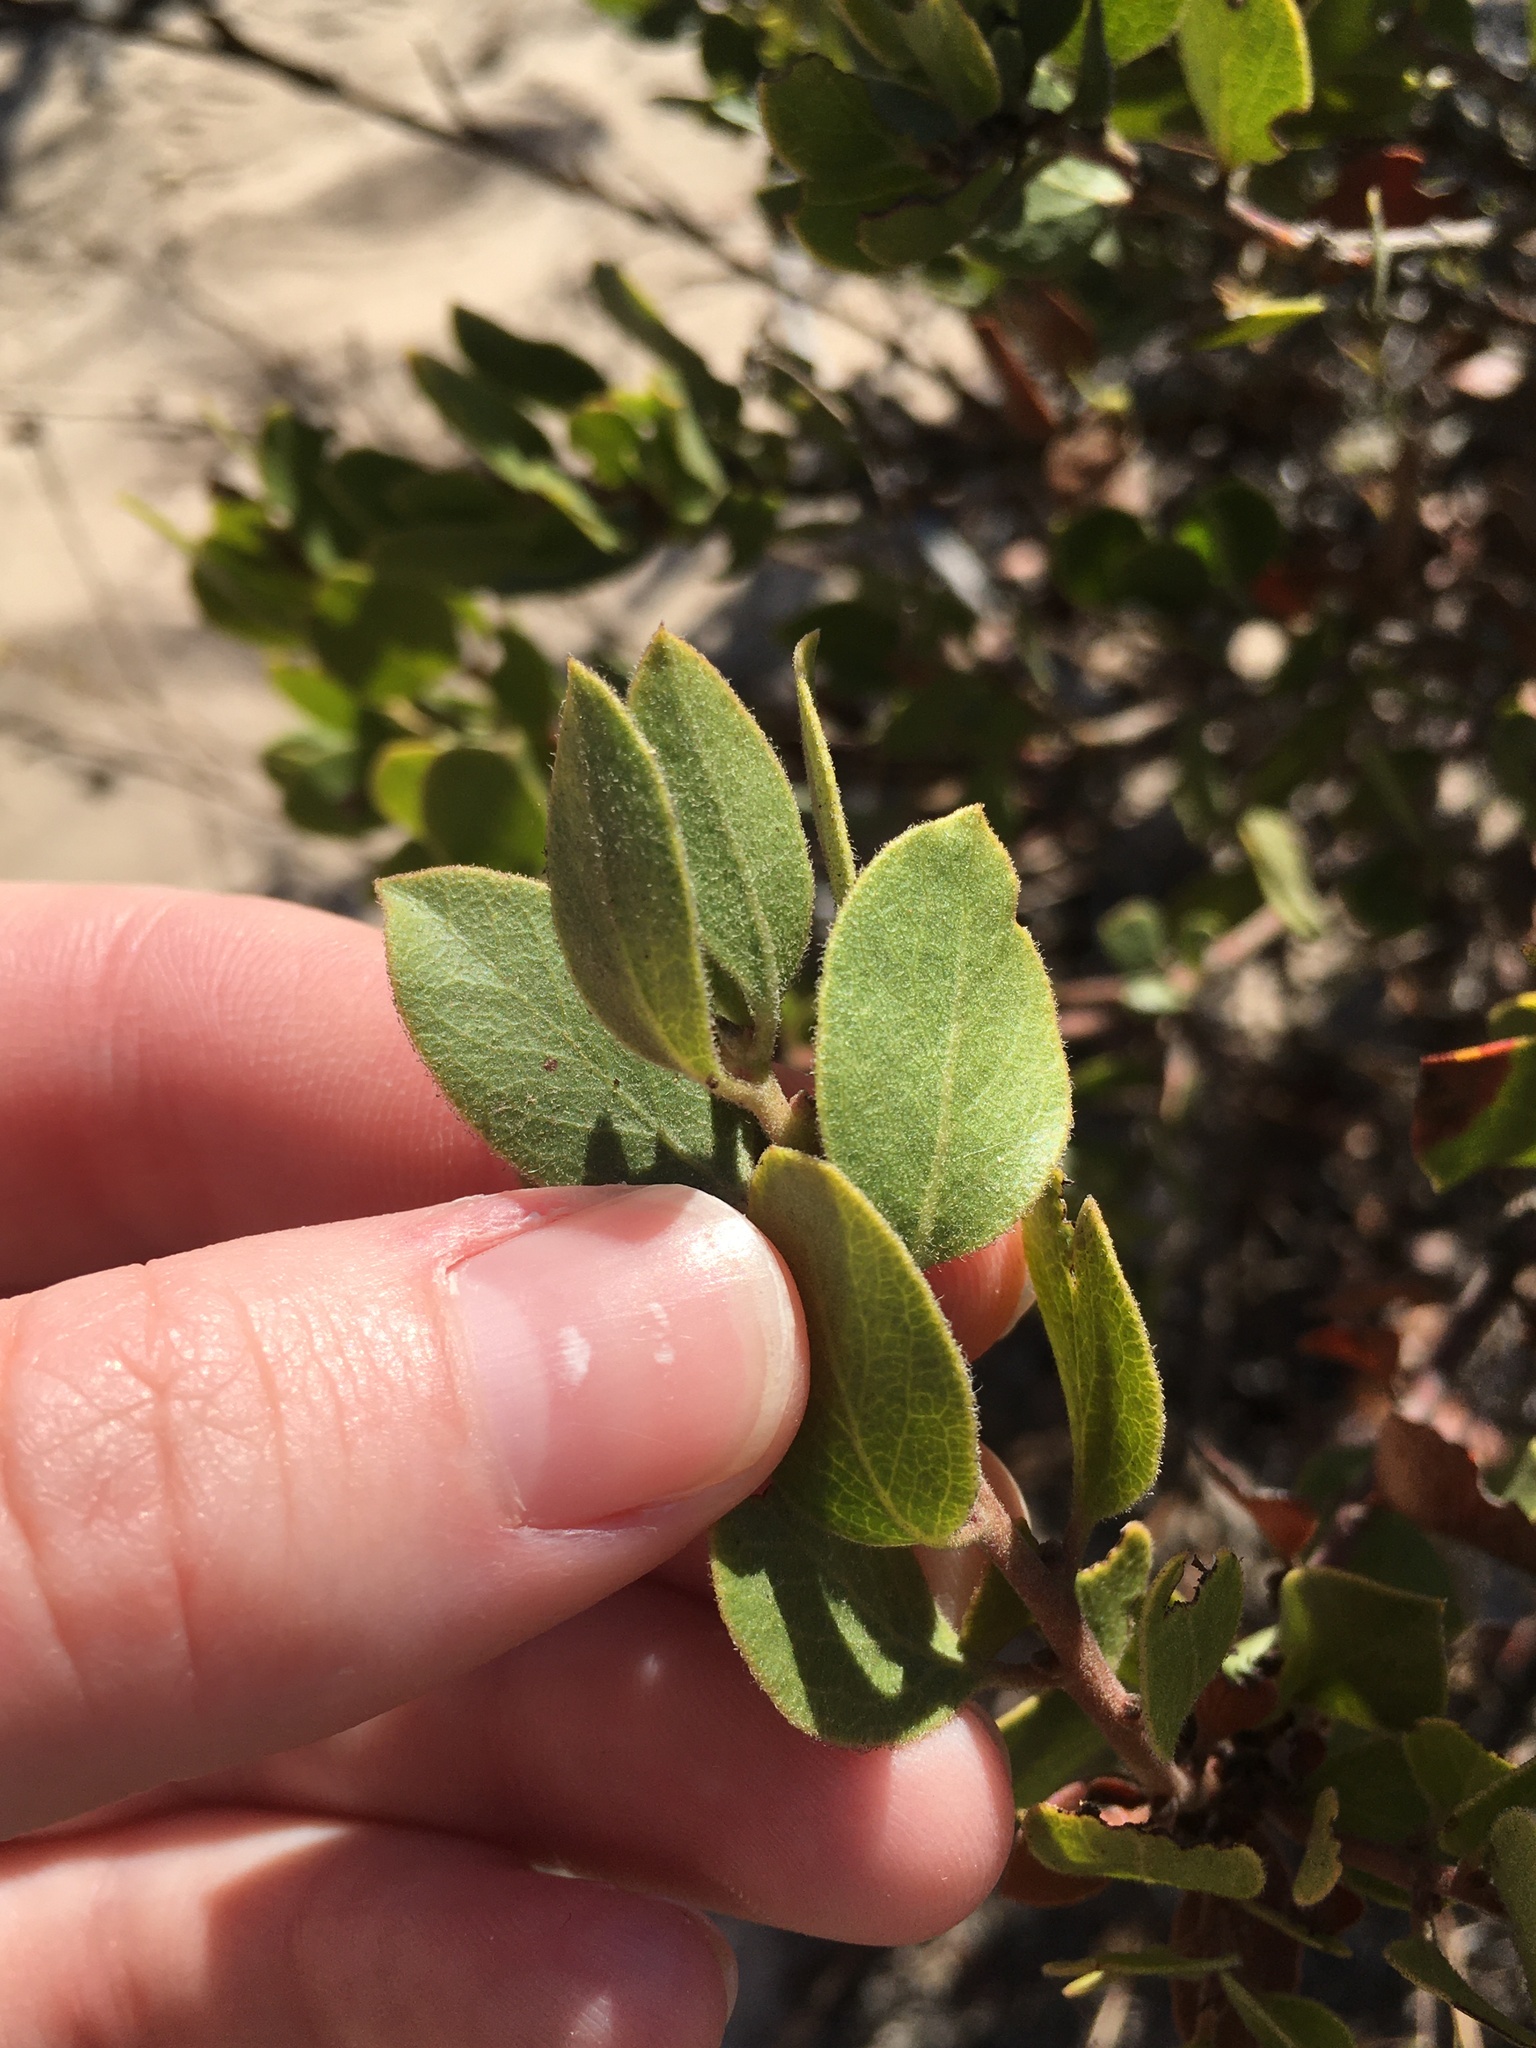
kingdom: Plantae
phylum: Tracheophyta
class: Magnoliopsida
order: Ericales
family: Ericaceae
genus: Arctostaphylos
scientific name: Arctostaphylos rudis
